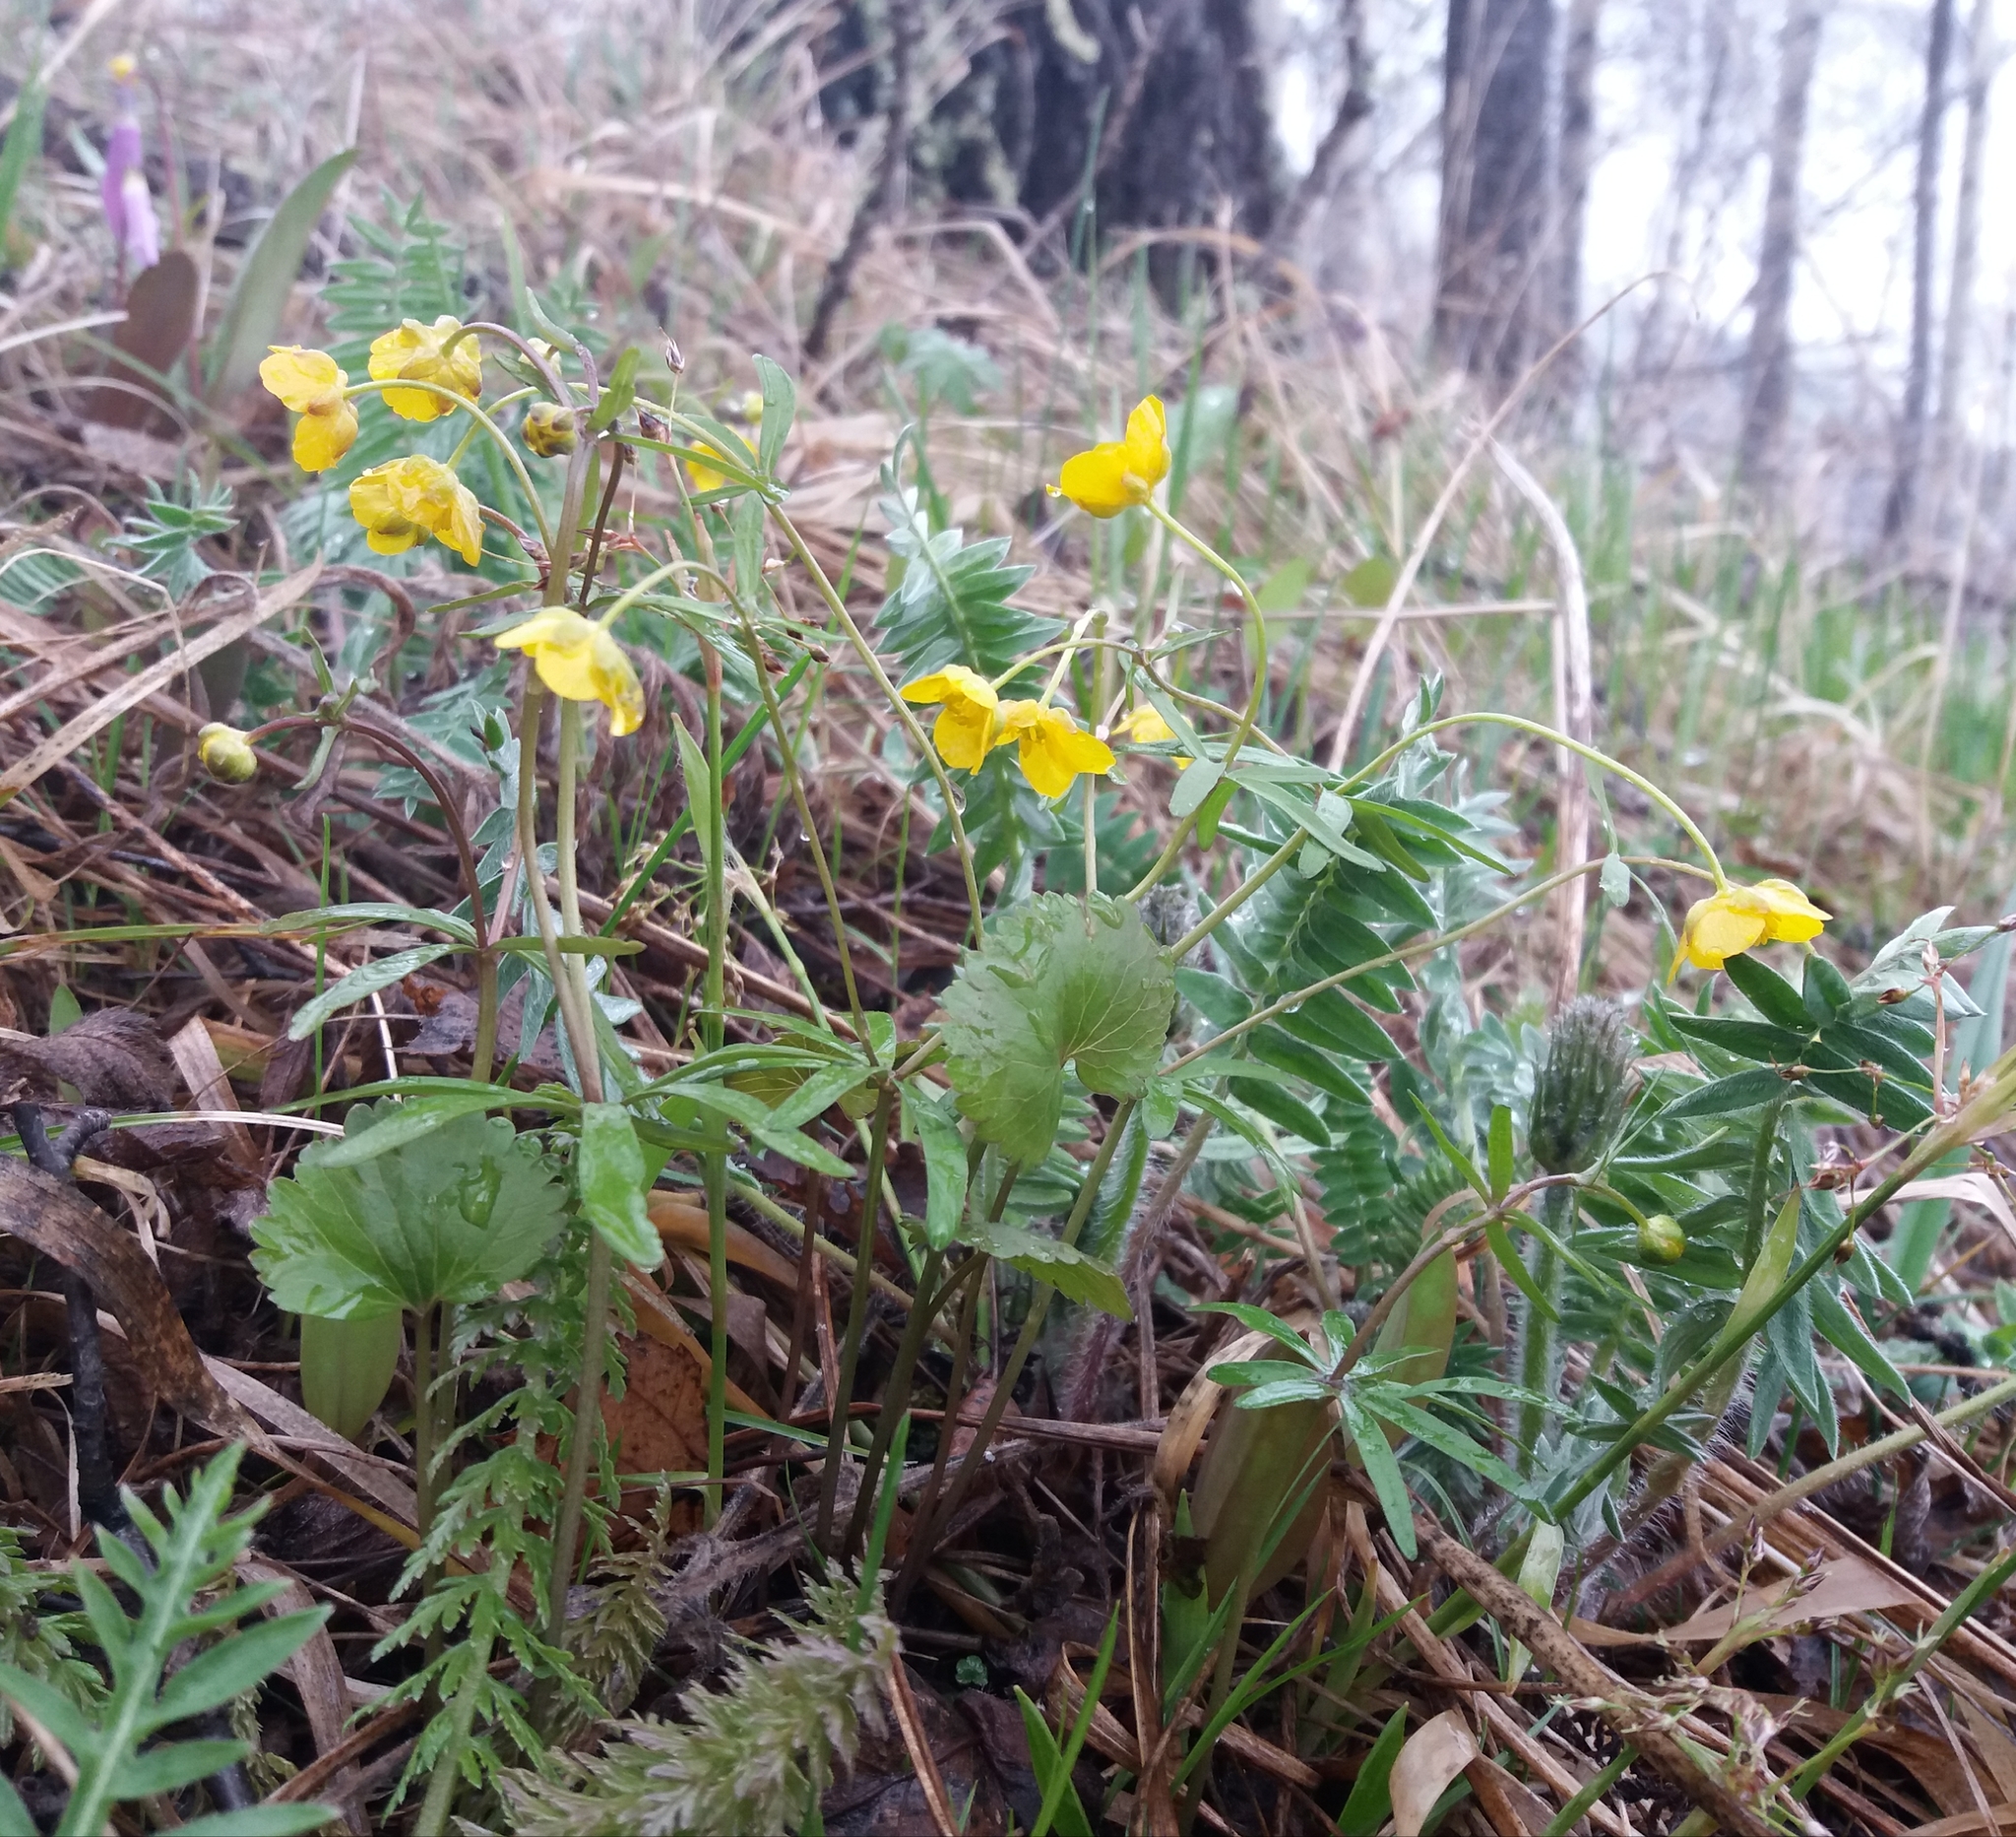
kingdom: Plantae
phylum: Tracheophyta
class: Magnoliopsida
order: Ranunculales
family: Ranunculaceae
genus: Ranunculus
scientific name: Ranunculus monophyllus
